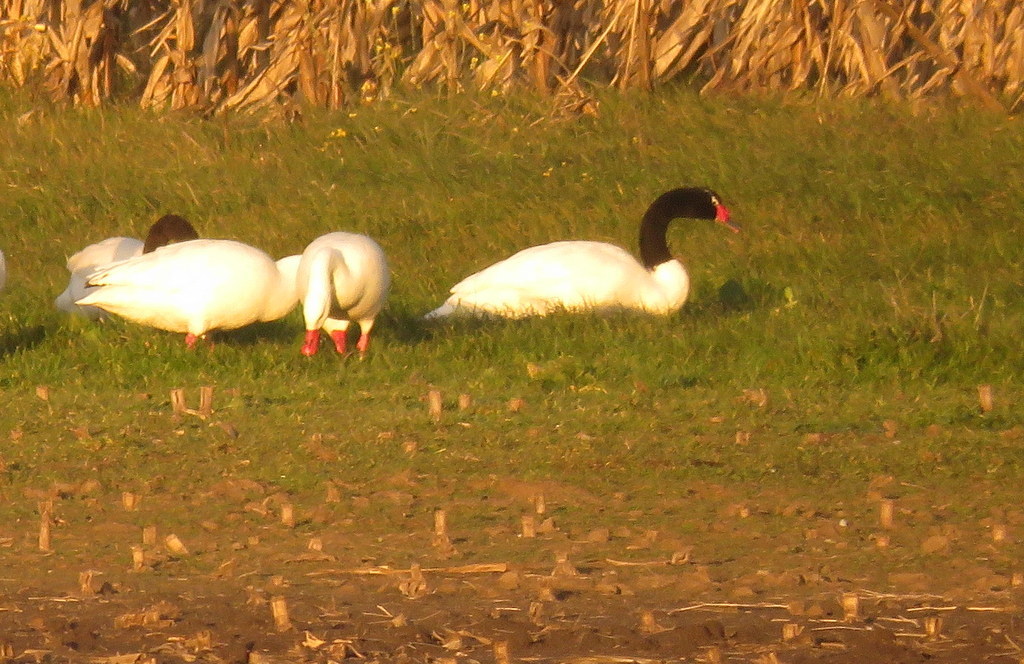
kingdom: Animalia
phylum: Chordata
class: Aves
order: Anseriformes
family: Anatidae
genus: Cygnus
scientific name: Cygnus melancoryphus
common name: Black-necked swan
